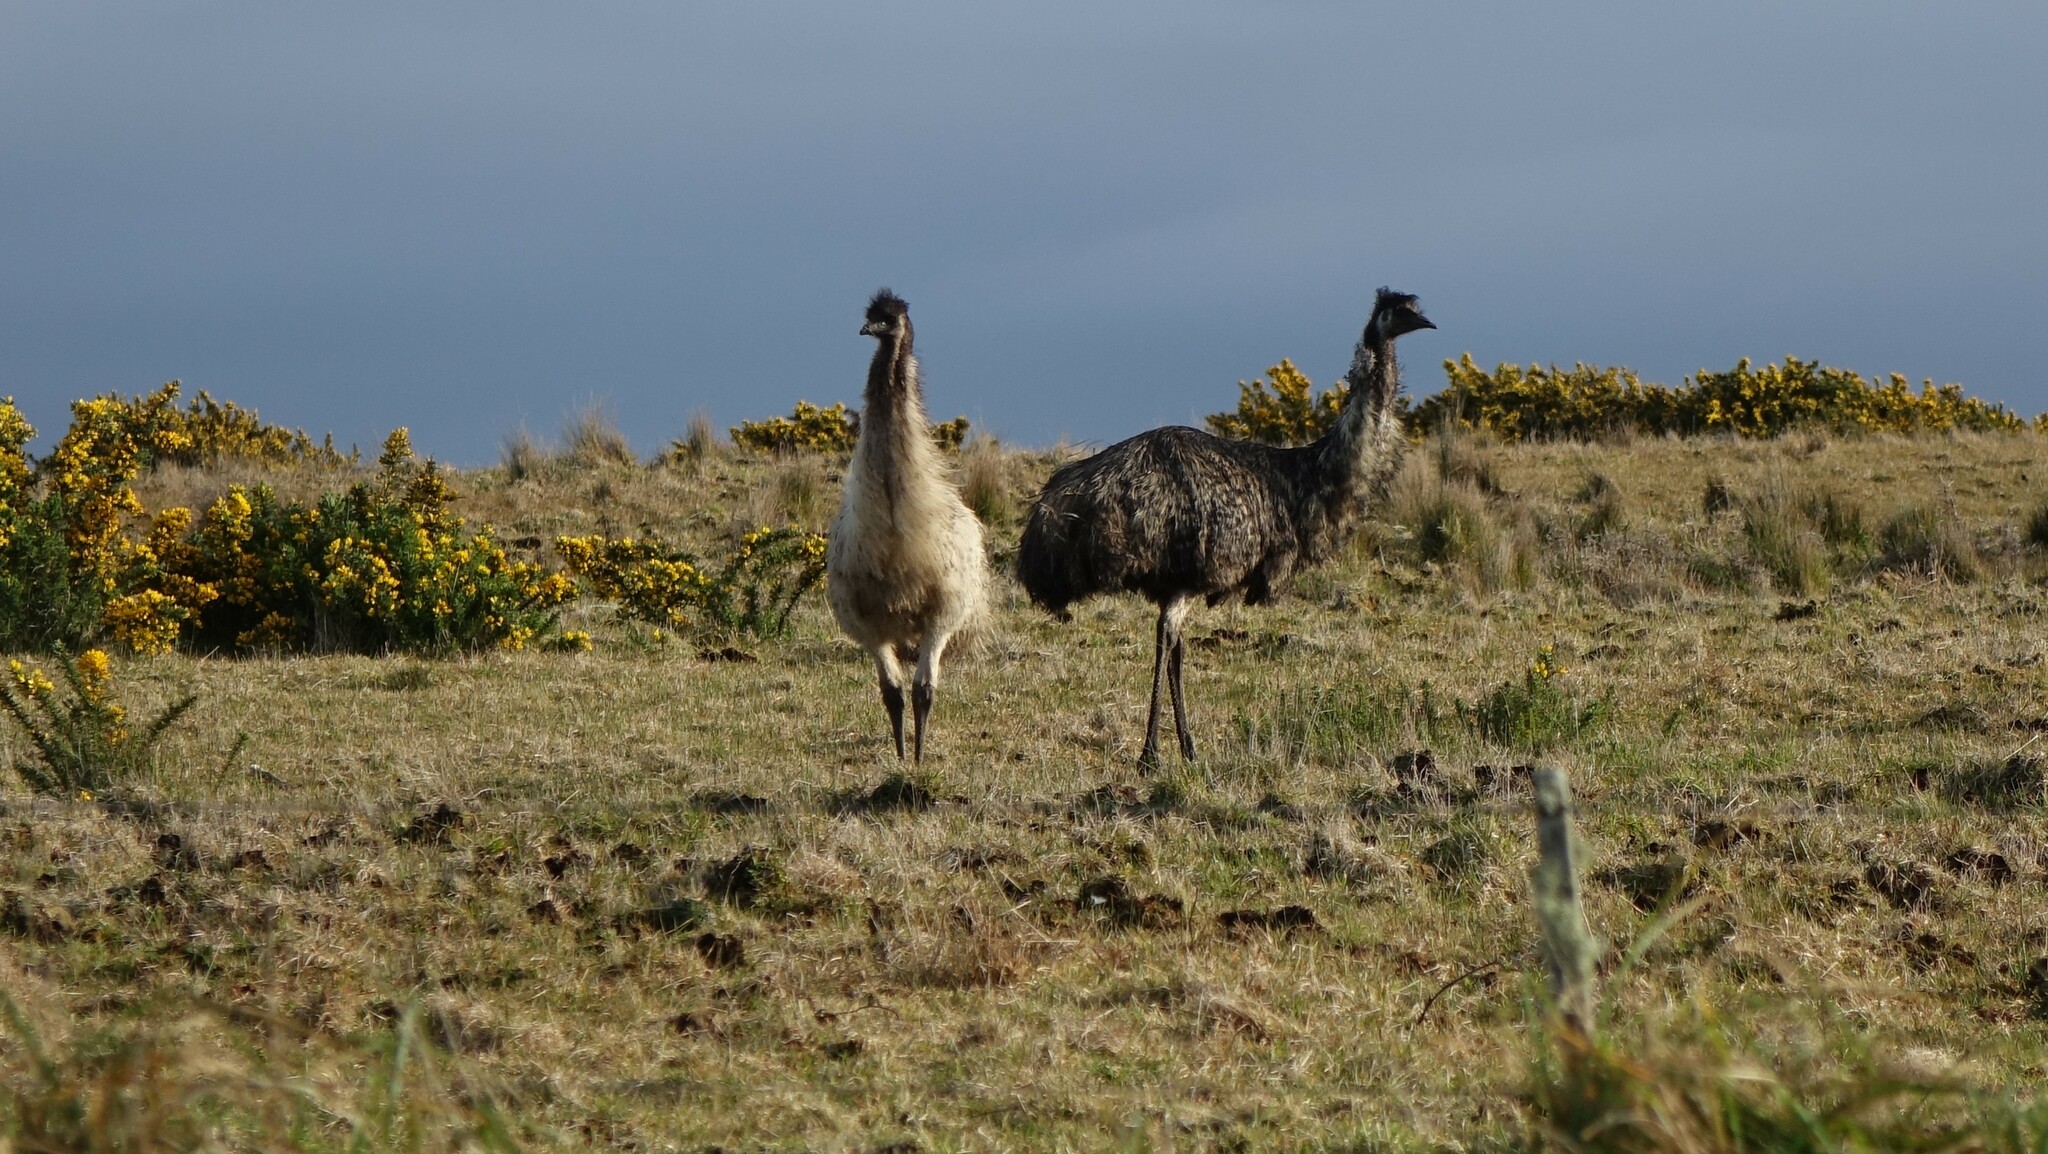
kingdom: Animalia
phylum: Chordata
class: Aves
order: Casuariiformes
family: Dromaiidae
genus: Dromaius
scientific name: Dromaius novaehollandiae
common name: Emu
